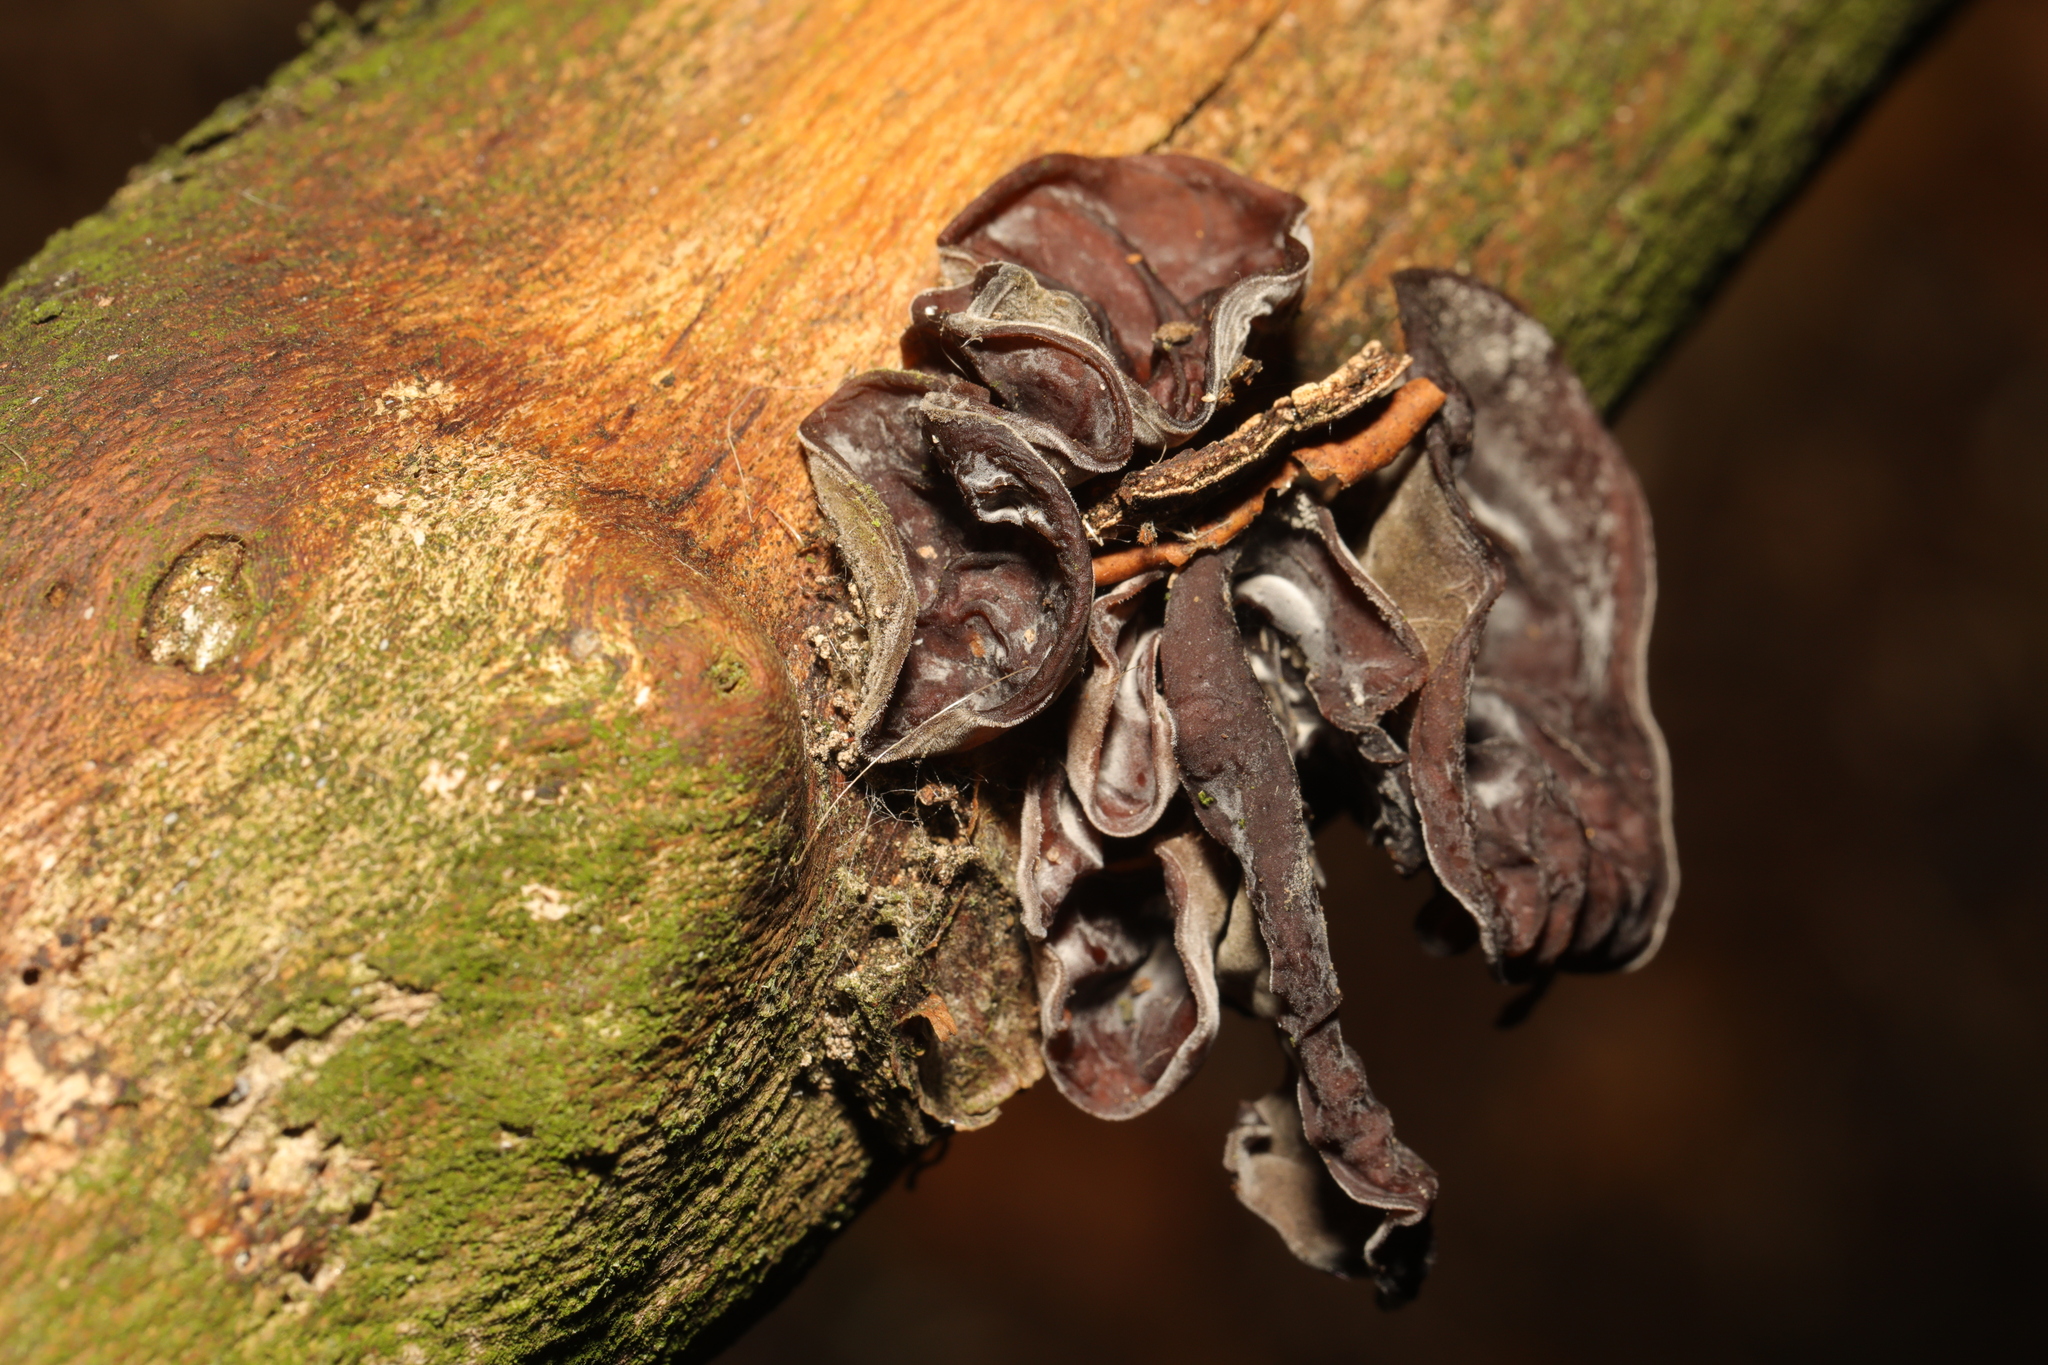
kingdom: Fungi
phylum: Basidiomycota
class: Agaricomycetes
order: Auriculariales
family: Auriculariaceae
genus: Auricularia
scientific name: Auricularia auricula-judae
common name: Jelly ear
